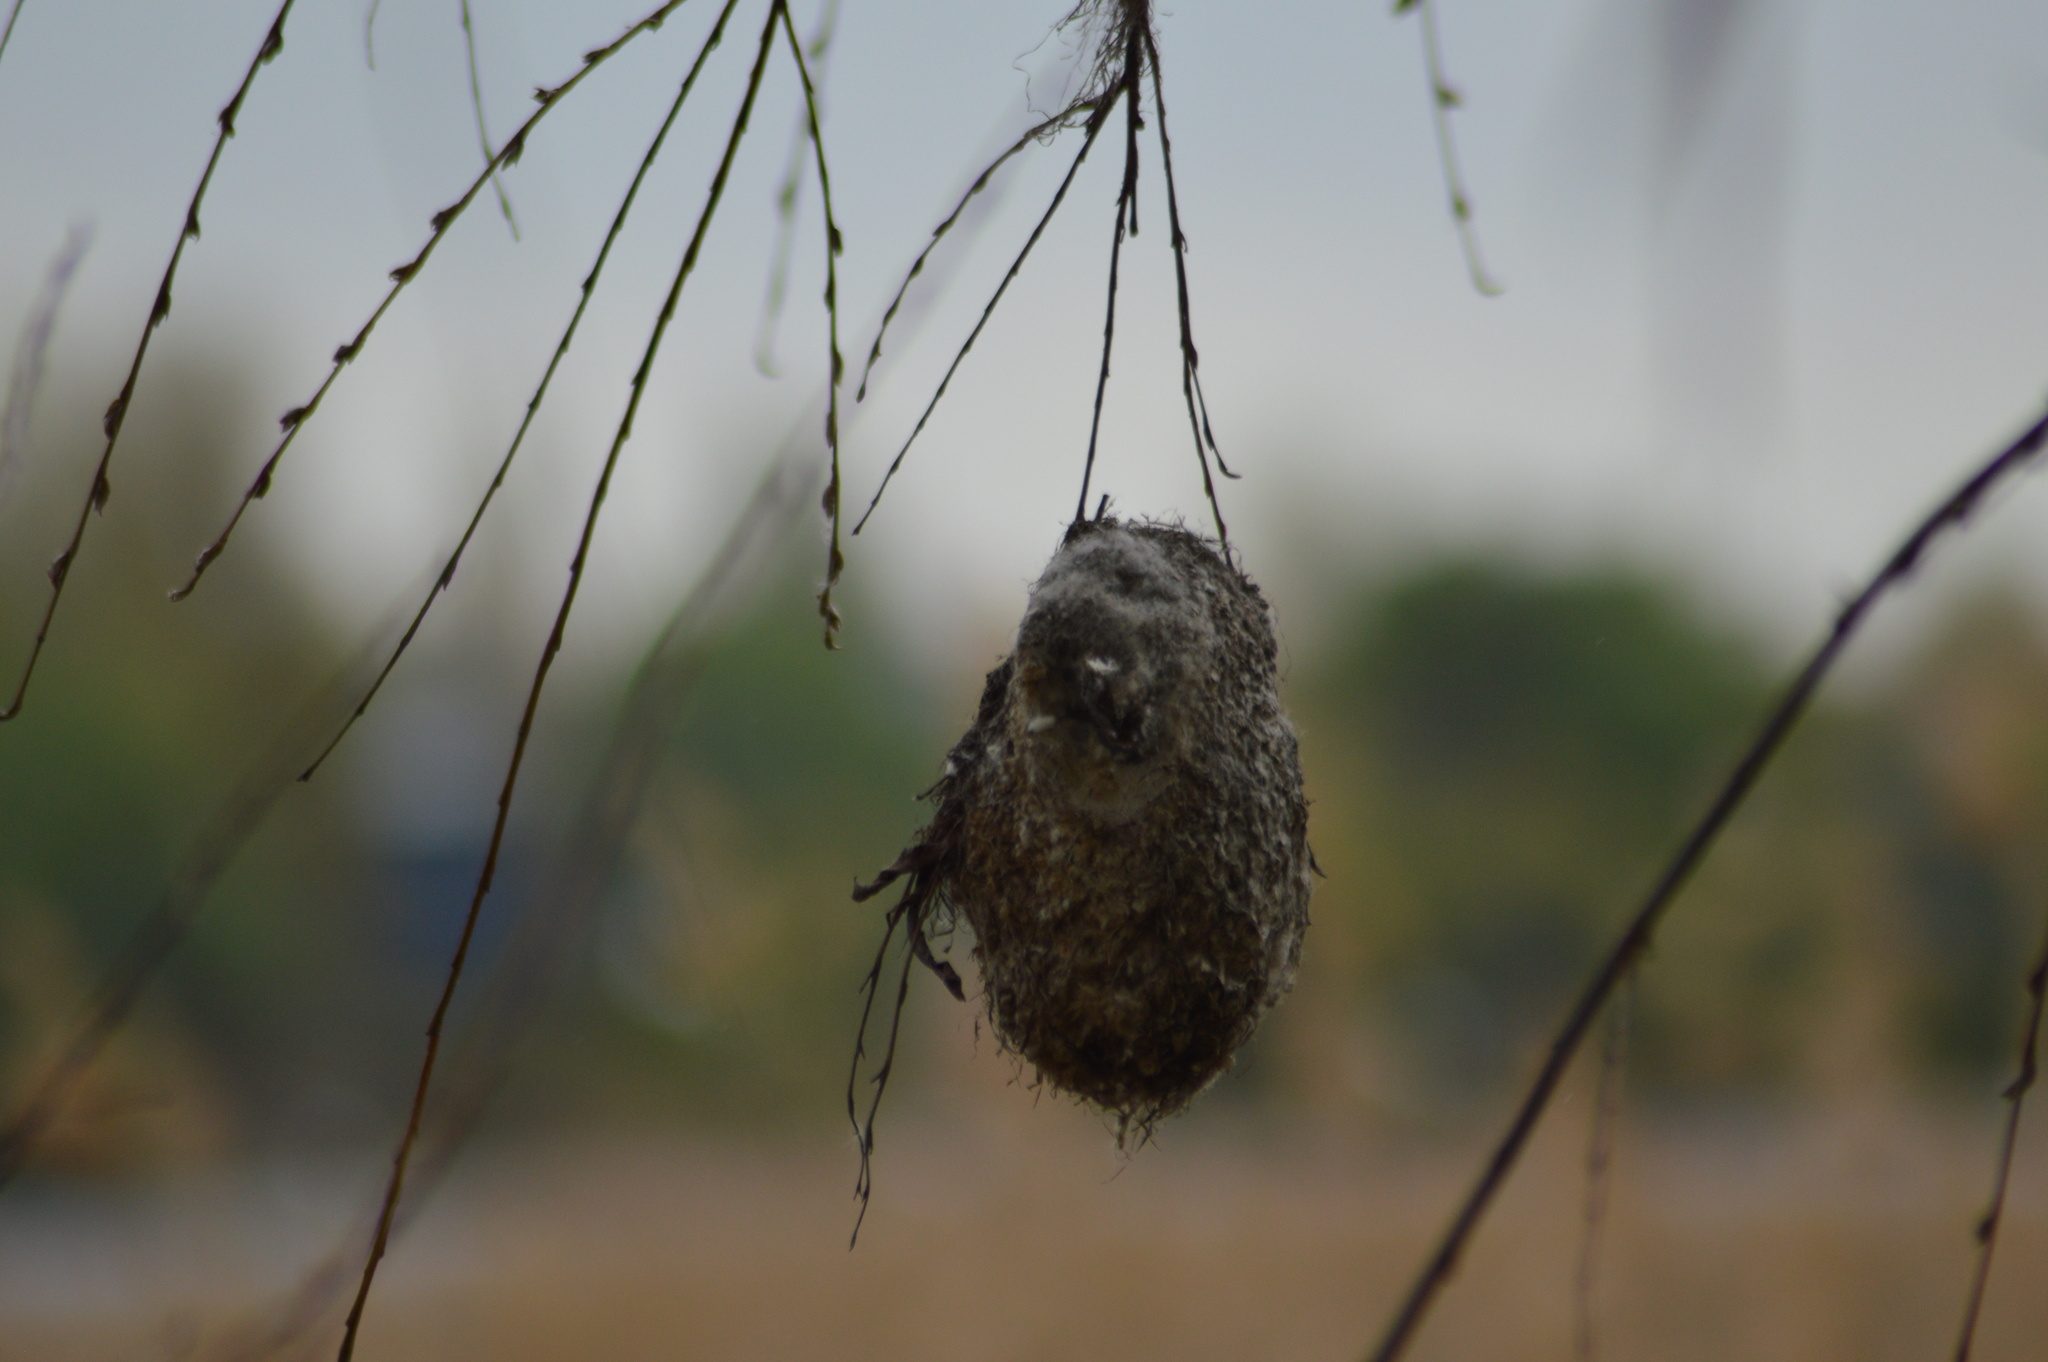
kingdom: Animalia
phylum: Chordata
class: Aves
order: Passeriformes
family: Remizidae
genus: Remiz
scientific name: Remiz pendulinus
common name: Eurasian penduline tit
